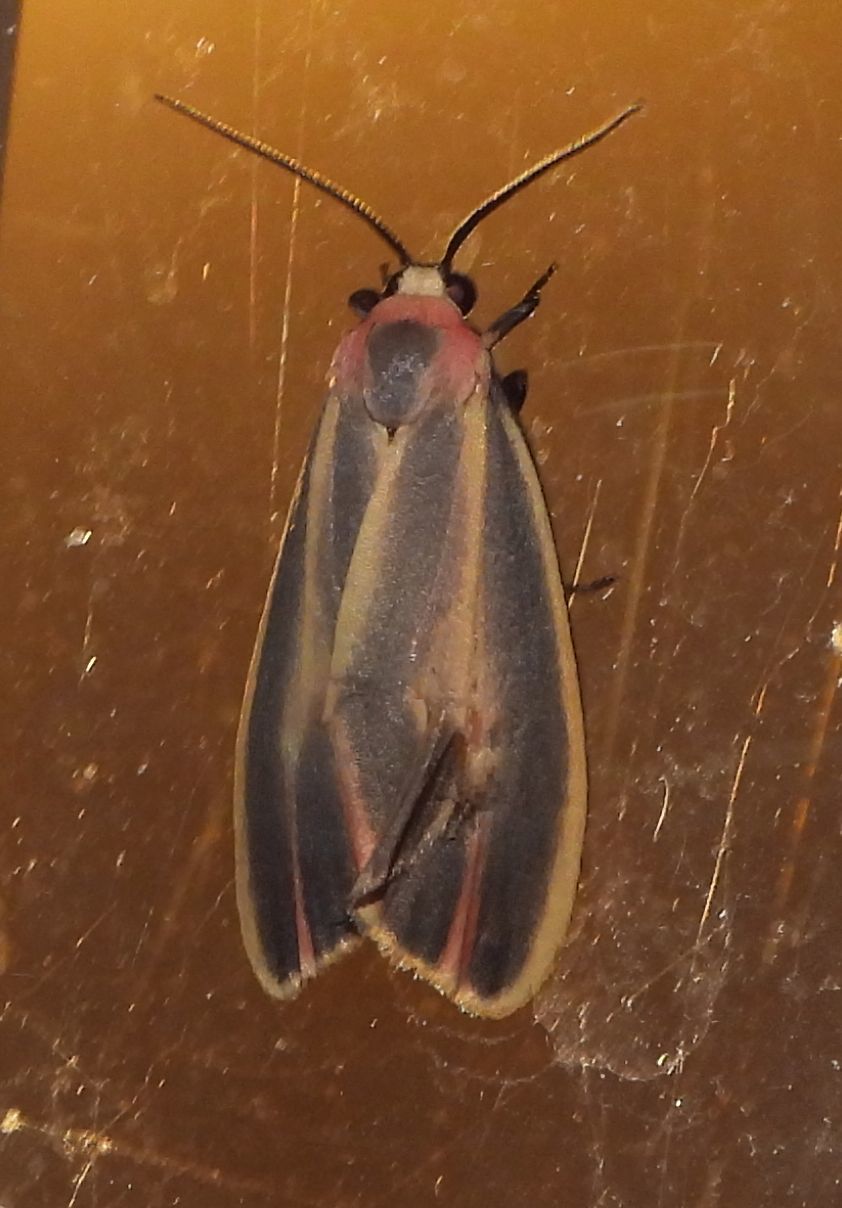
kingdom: Animalia
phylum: Arthropoda
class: Insecta
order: Lepidoptera
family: Erebidae
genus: Hypoprepia
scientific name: Hypoprepia fucosa
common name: Painted lichen moth
